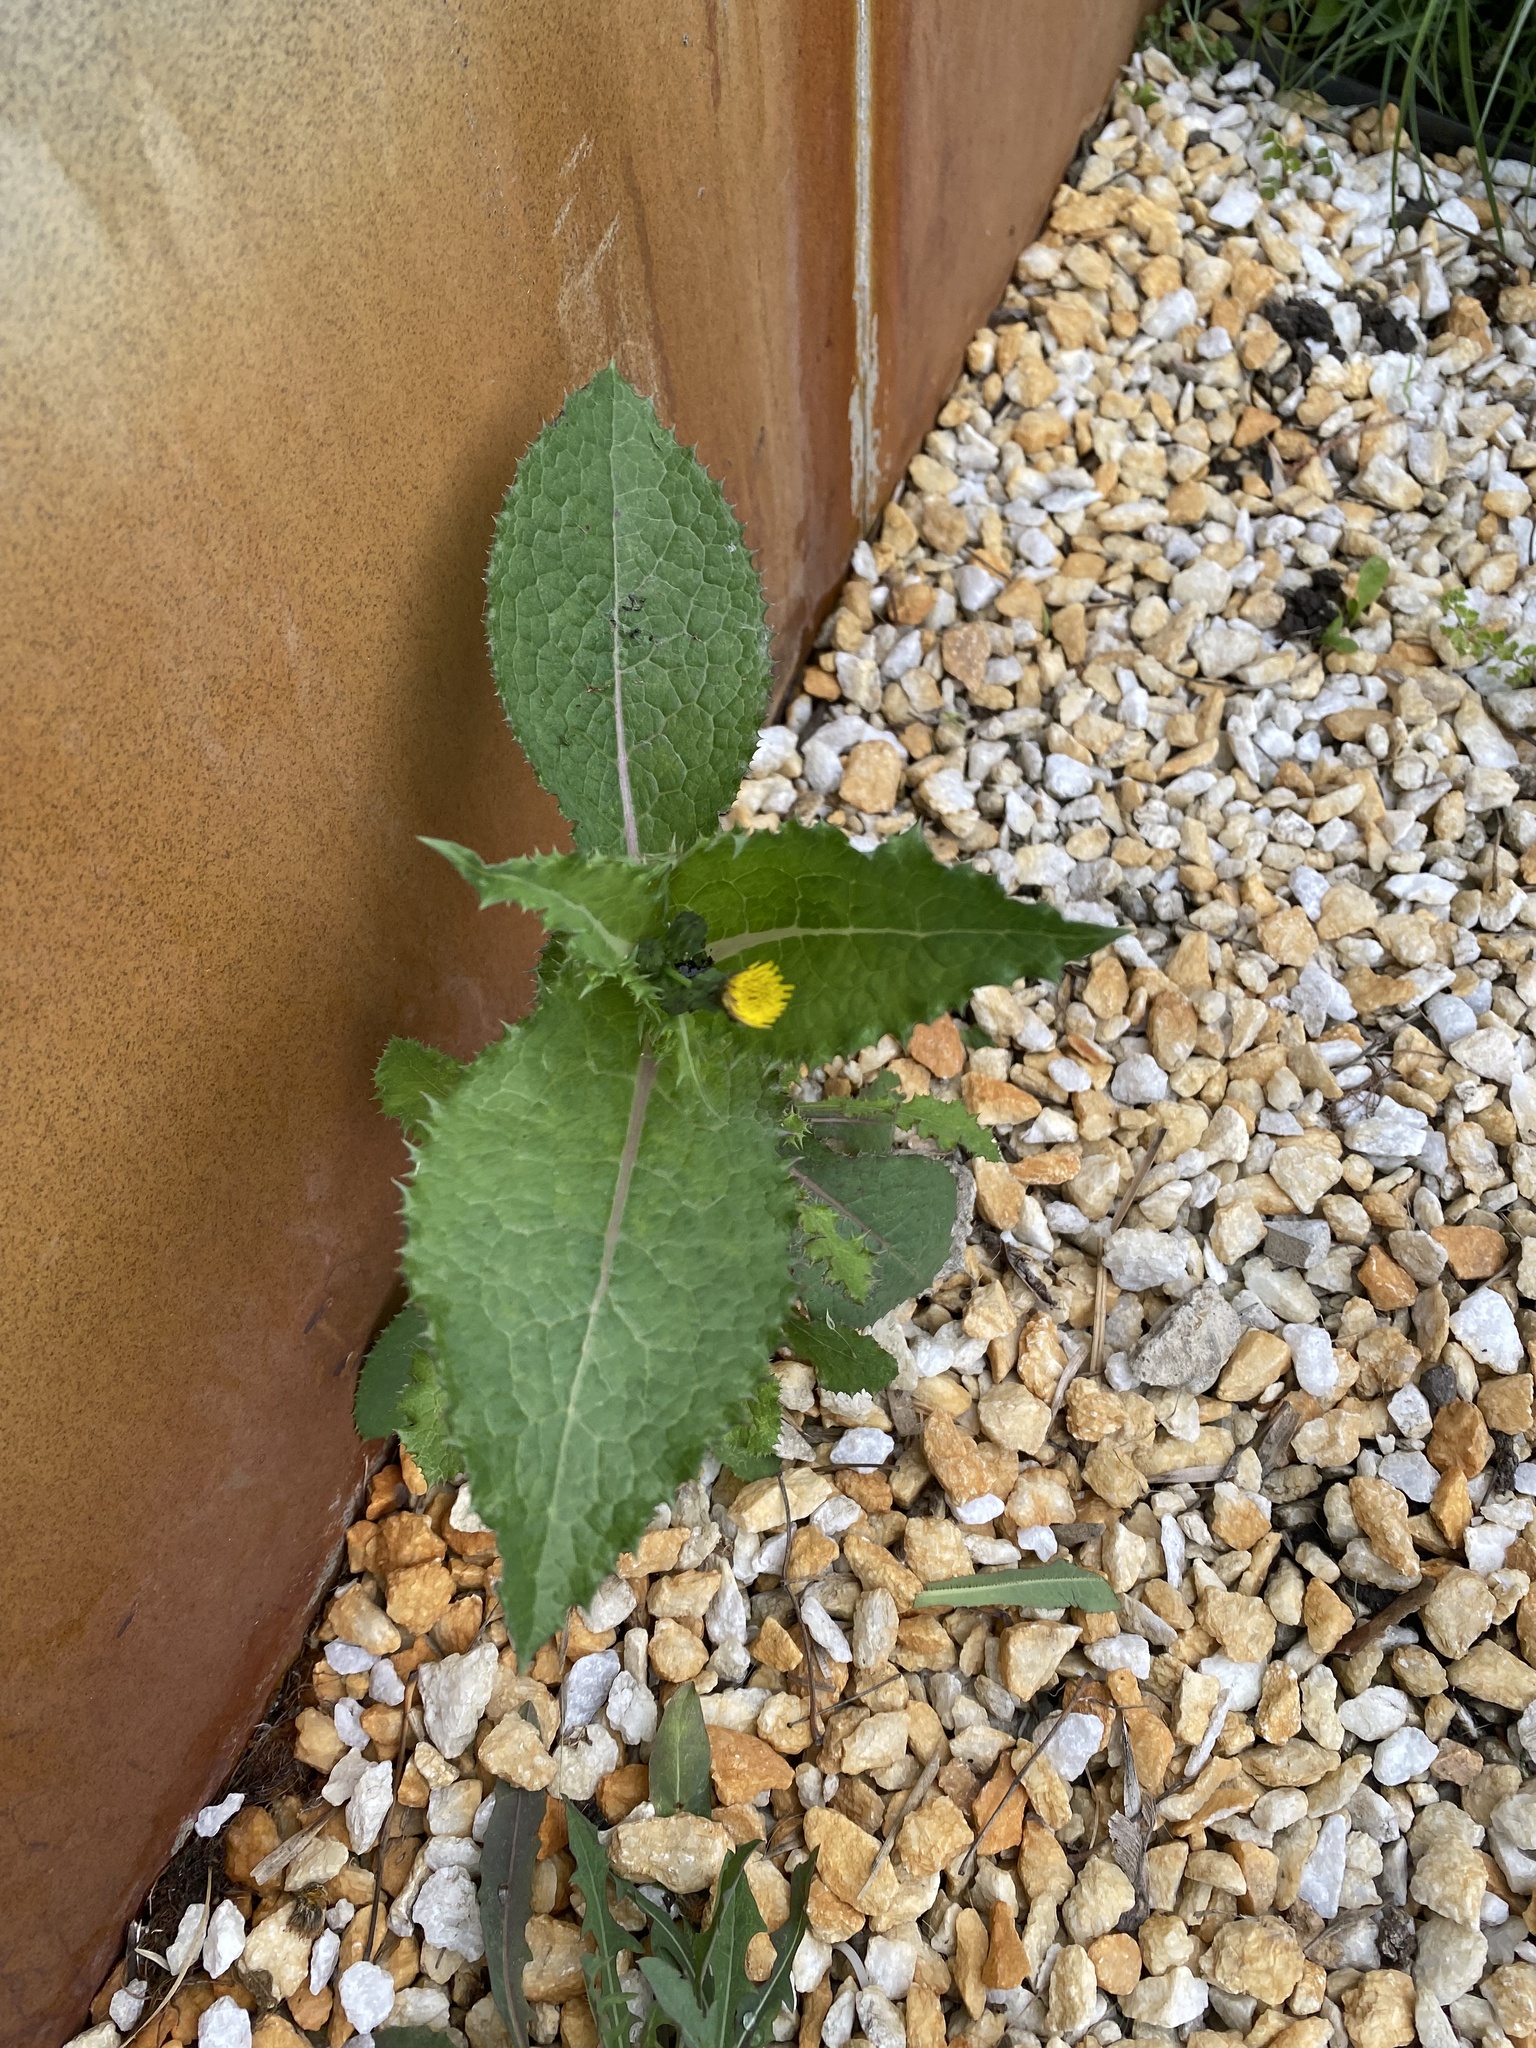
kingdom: Plantae
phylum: Tracheophyta
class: Magnoliopsida
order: Asterales
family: Asteraceae
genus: Sonchus
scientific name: Sonchus asper
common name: Prickly sow-thistle
